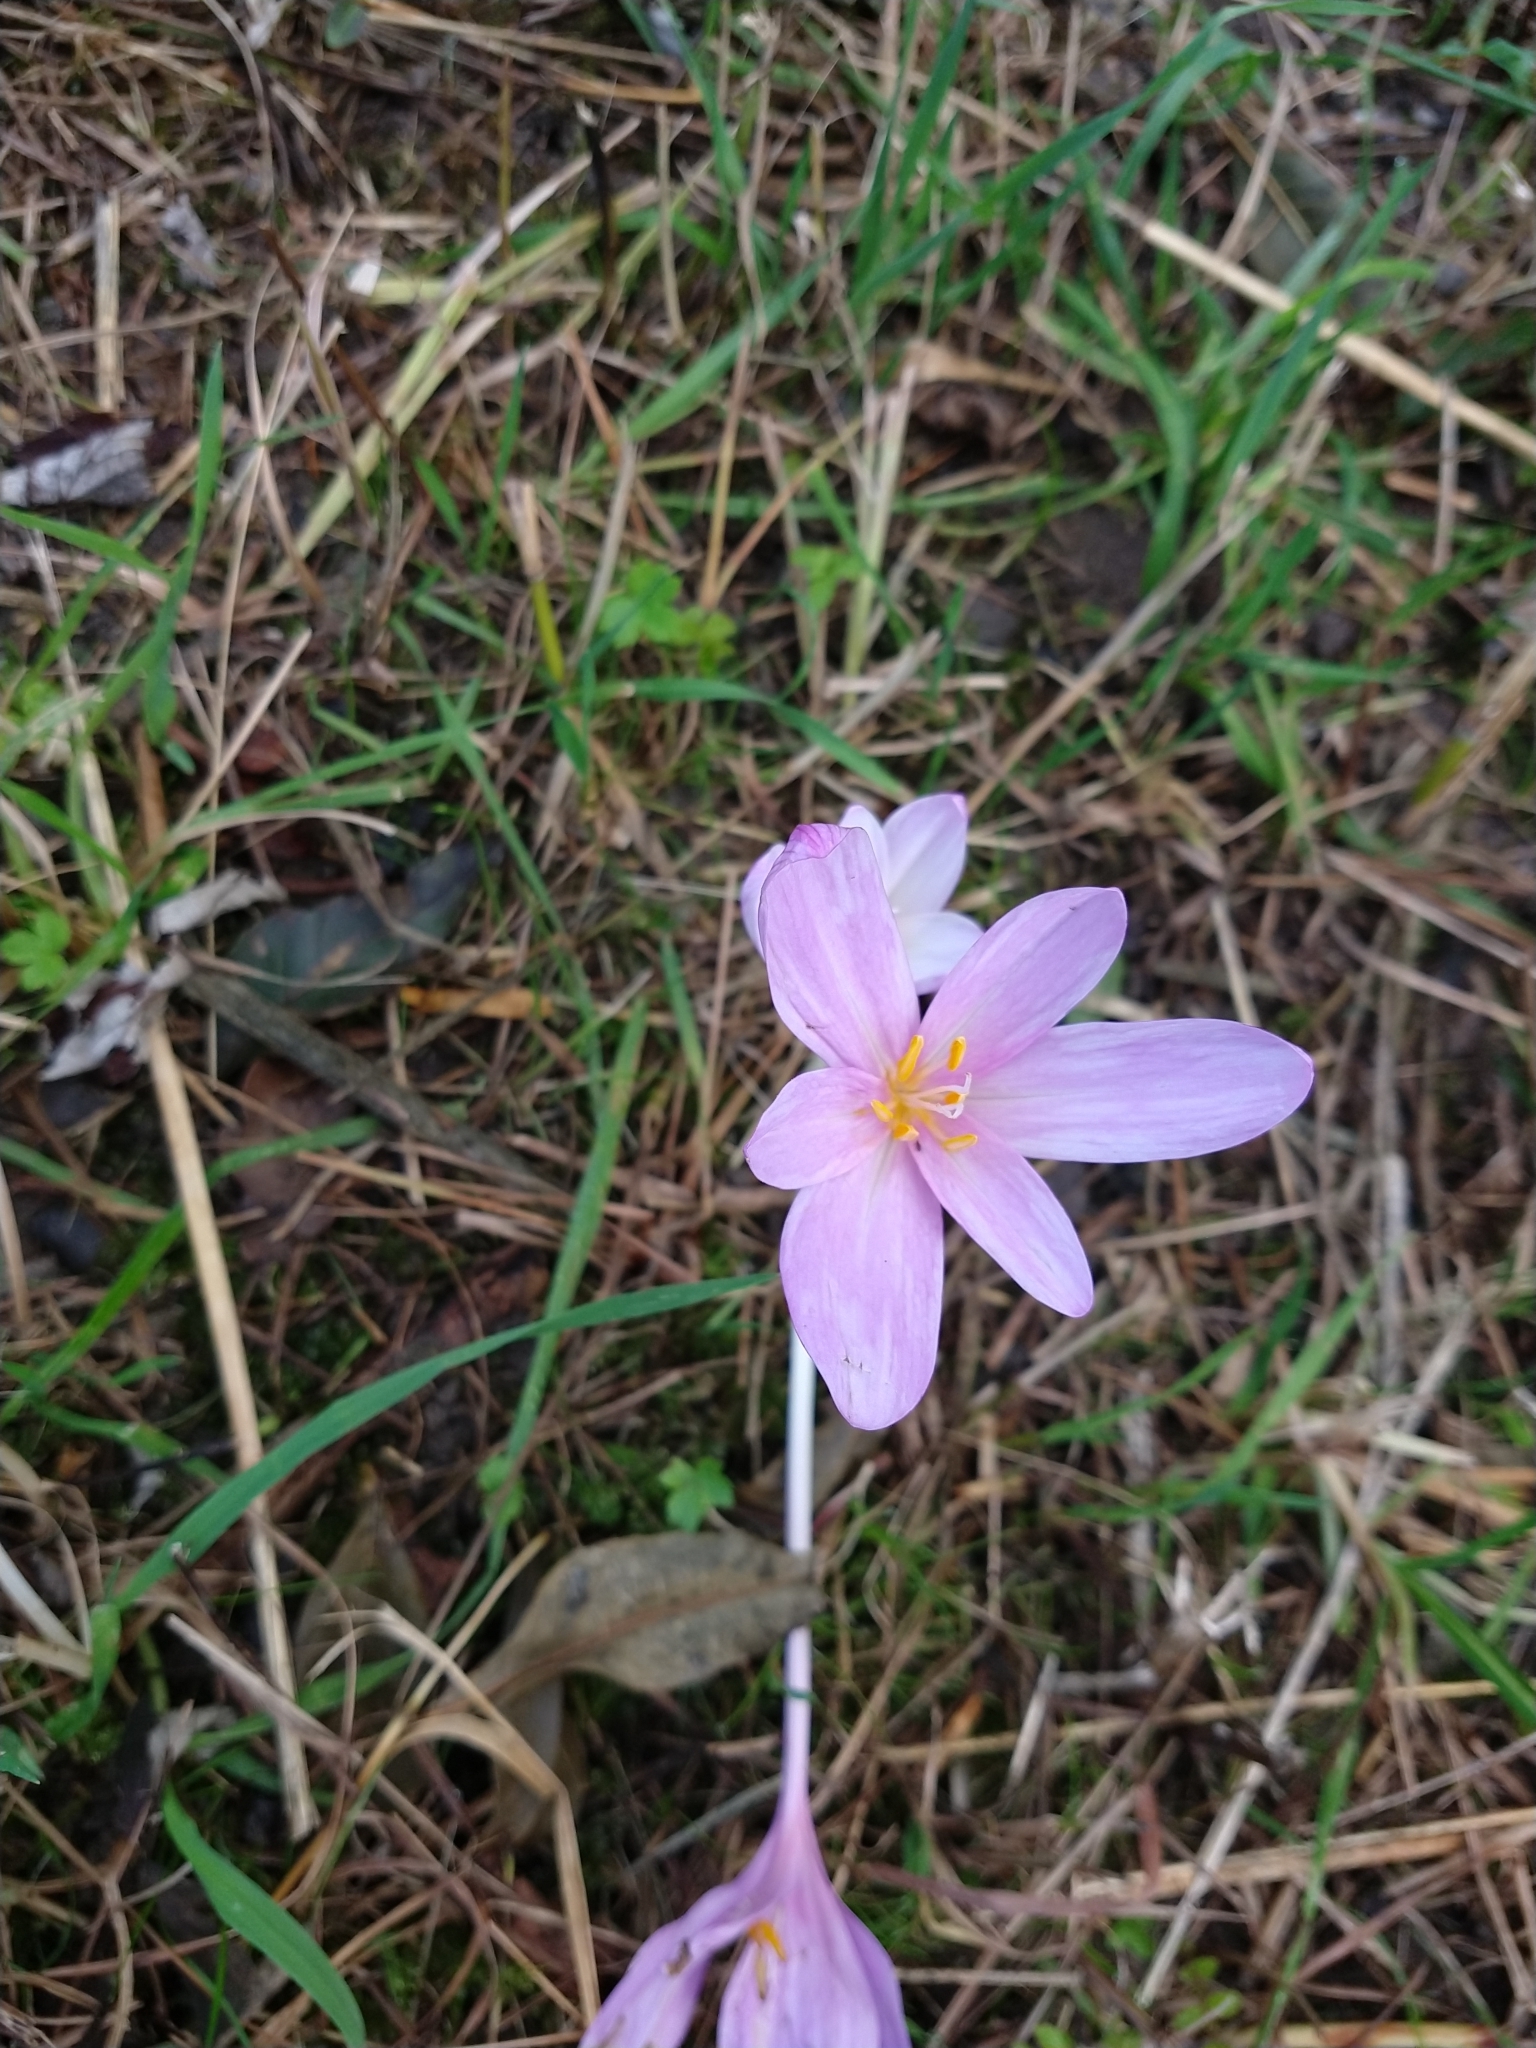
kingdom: Plantae
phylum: Tracheophyta
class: Liliopsida
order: Liliales
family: Colchicaceae
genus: Colchicum
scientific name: Colchicum autumnale
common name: Autumn crocus
